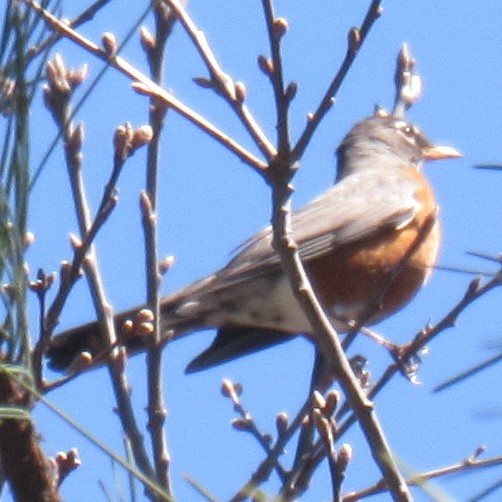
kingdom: Animalia
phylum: Chordata
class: Aves
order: Passeriformes
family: Turdidae
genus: Turdus
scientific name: Turdus migratorius
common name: American robin
